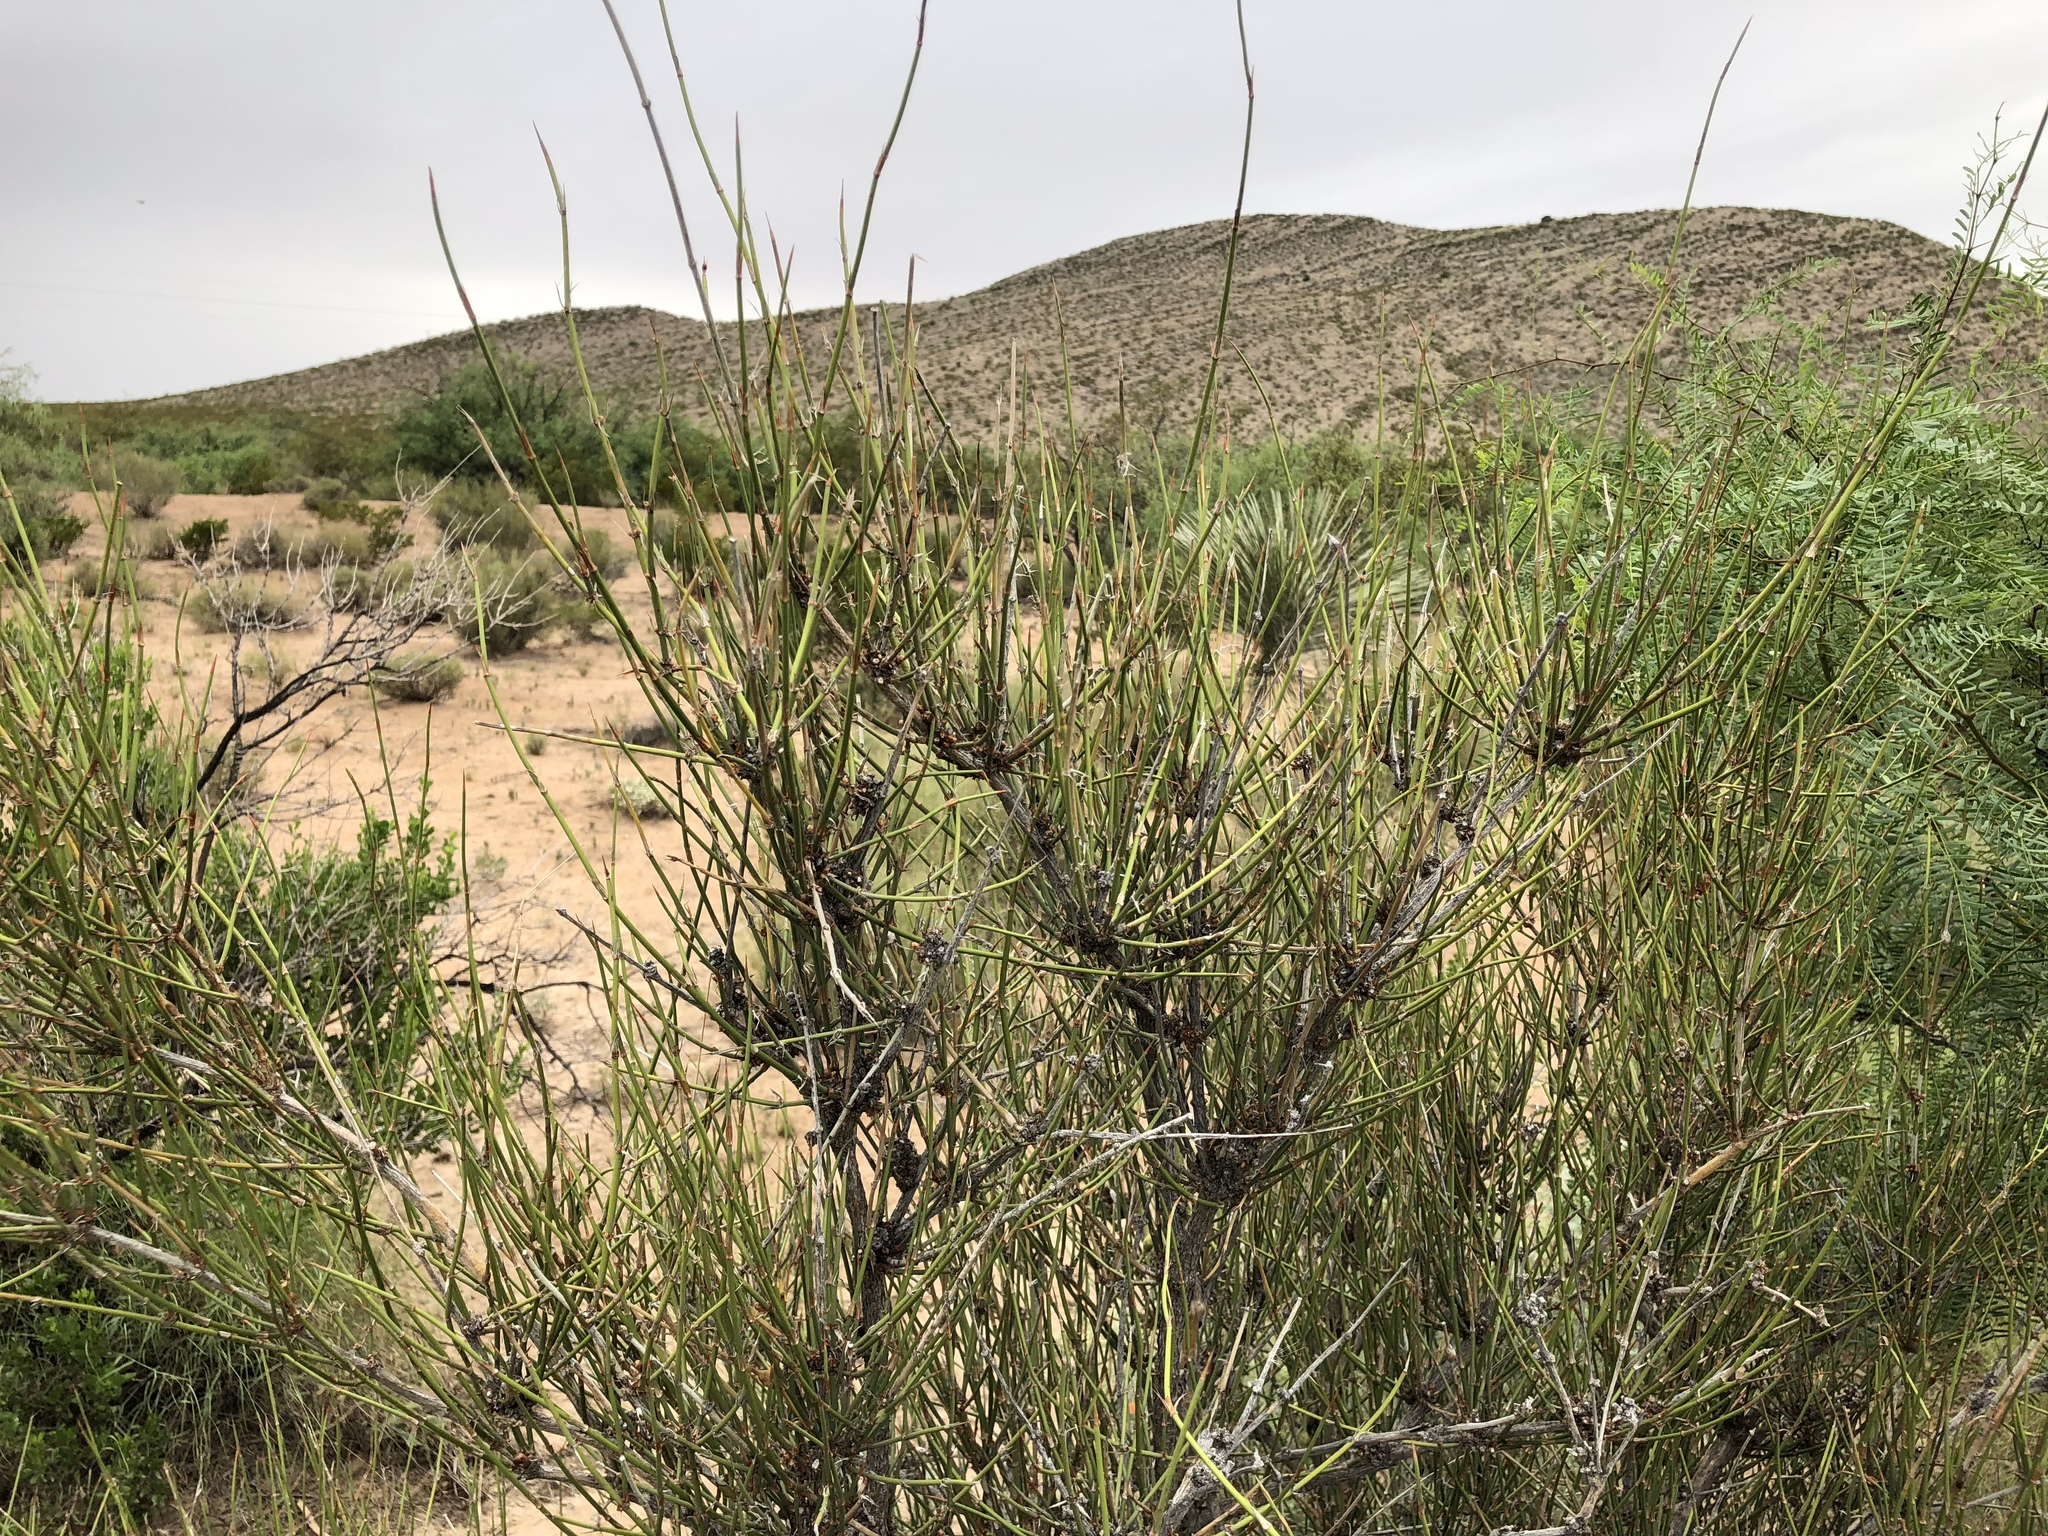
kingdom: Plantae
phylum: Tracheophyta
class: Gnetopsida
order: Ephedrales
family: Ephedraceae
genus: Ephedra
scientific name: Ephedra trifurca
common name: Mexican-tea
